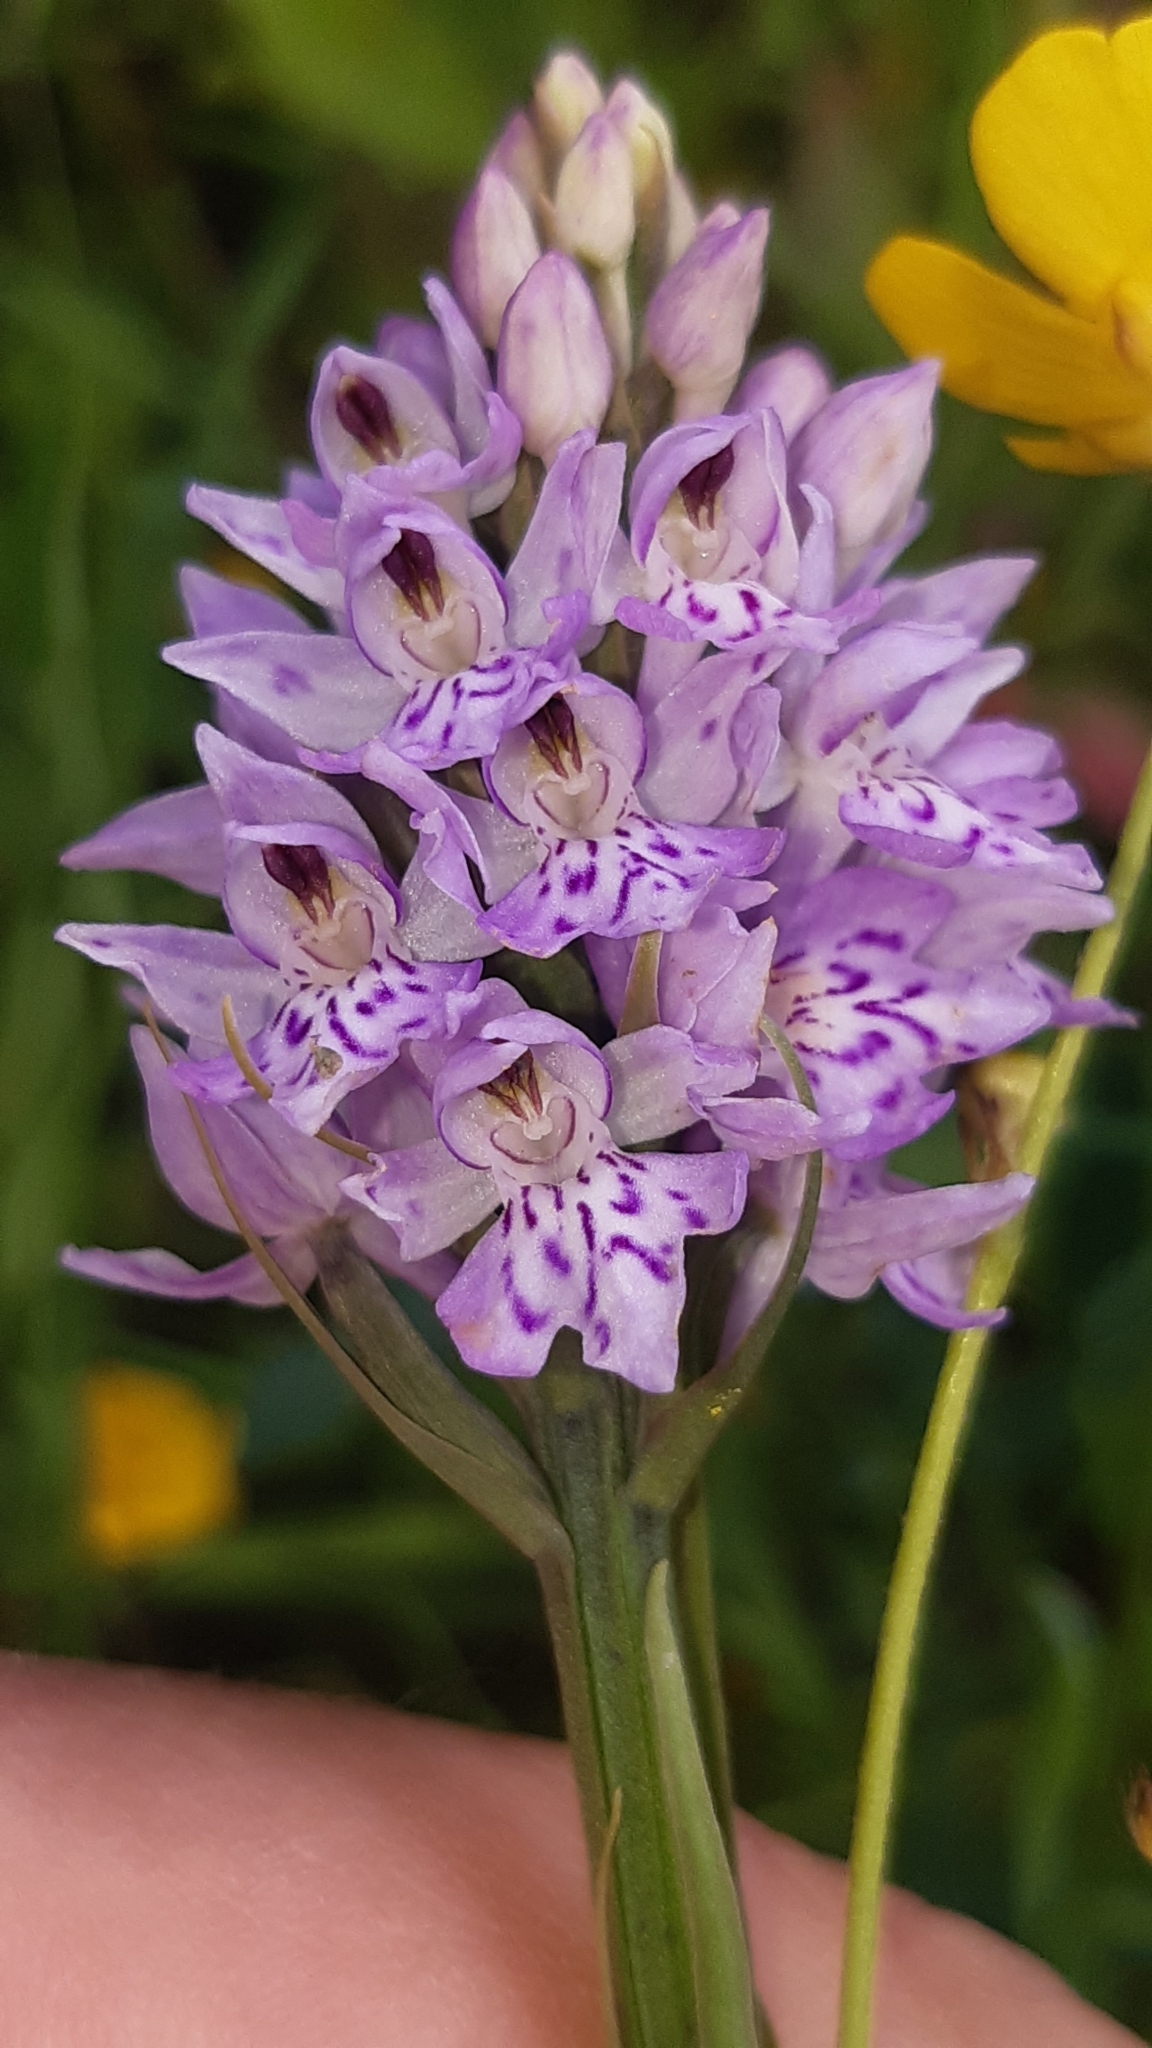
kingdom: Plantae
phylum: Tracheophyta
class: Liliopsida
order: Asparagales
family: Orchidaceae
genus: Dactylorhiza
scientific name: Dactylorhiza maculata
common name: Heath spotted-orchid
